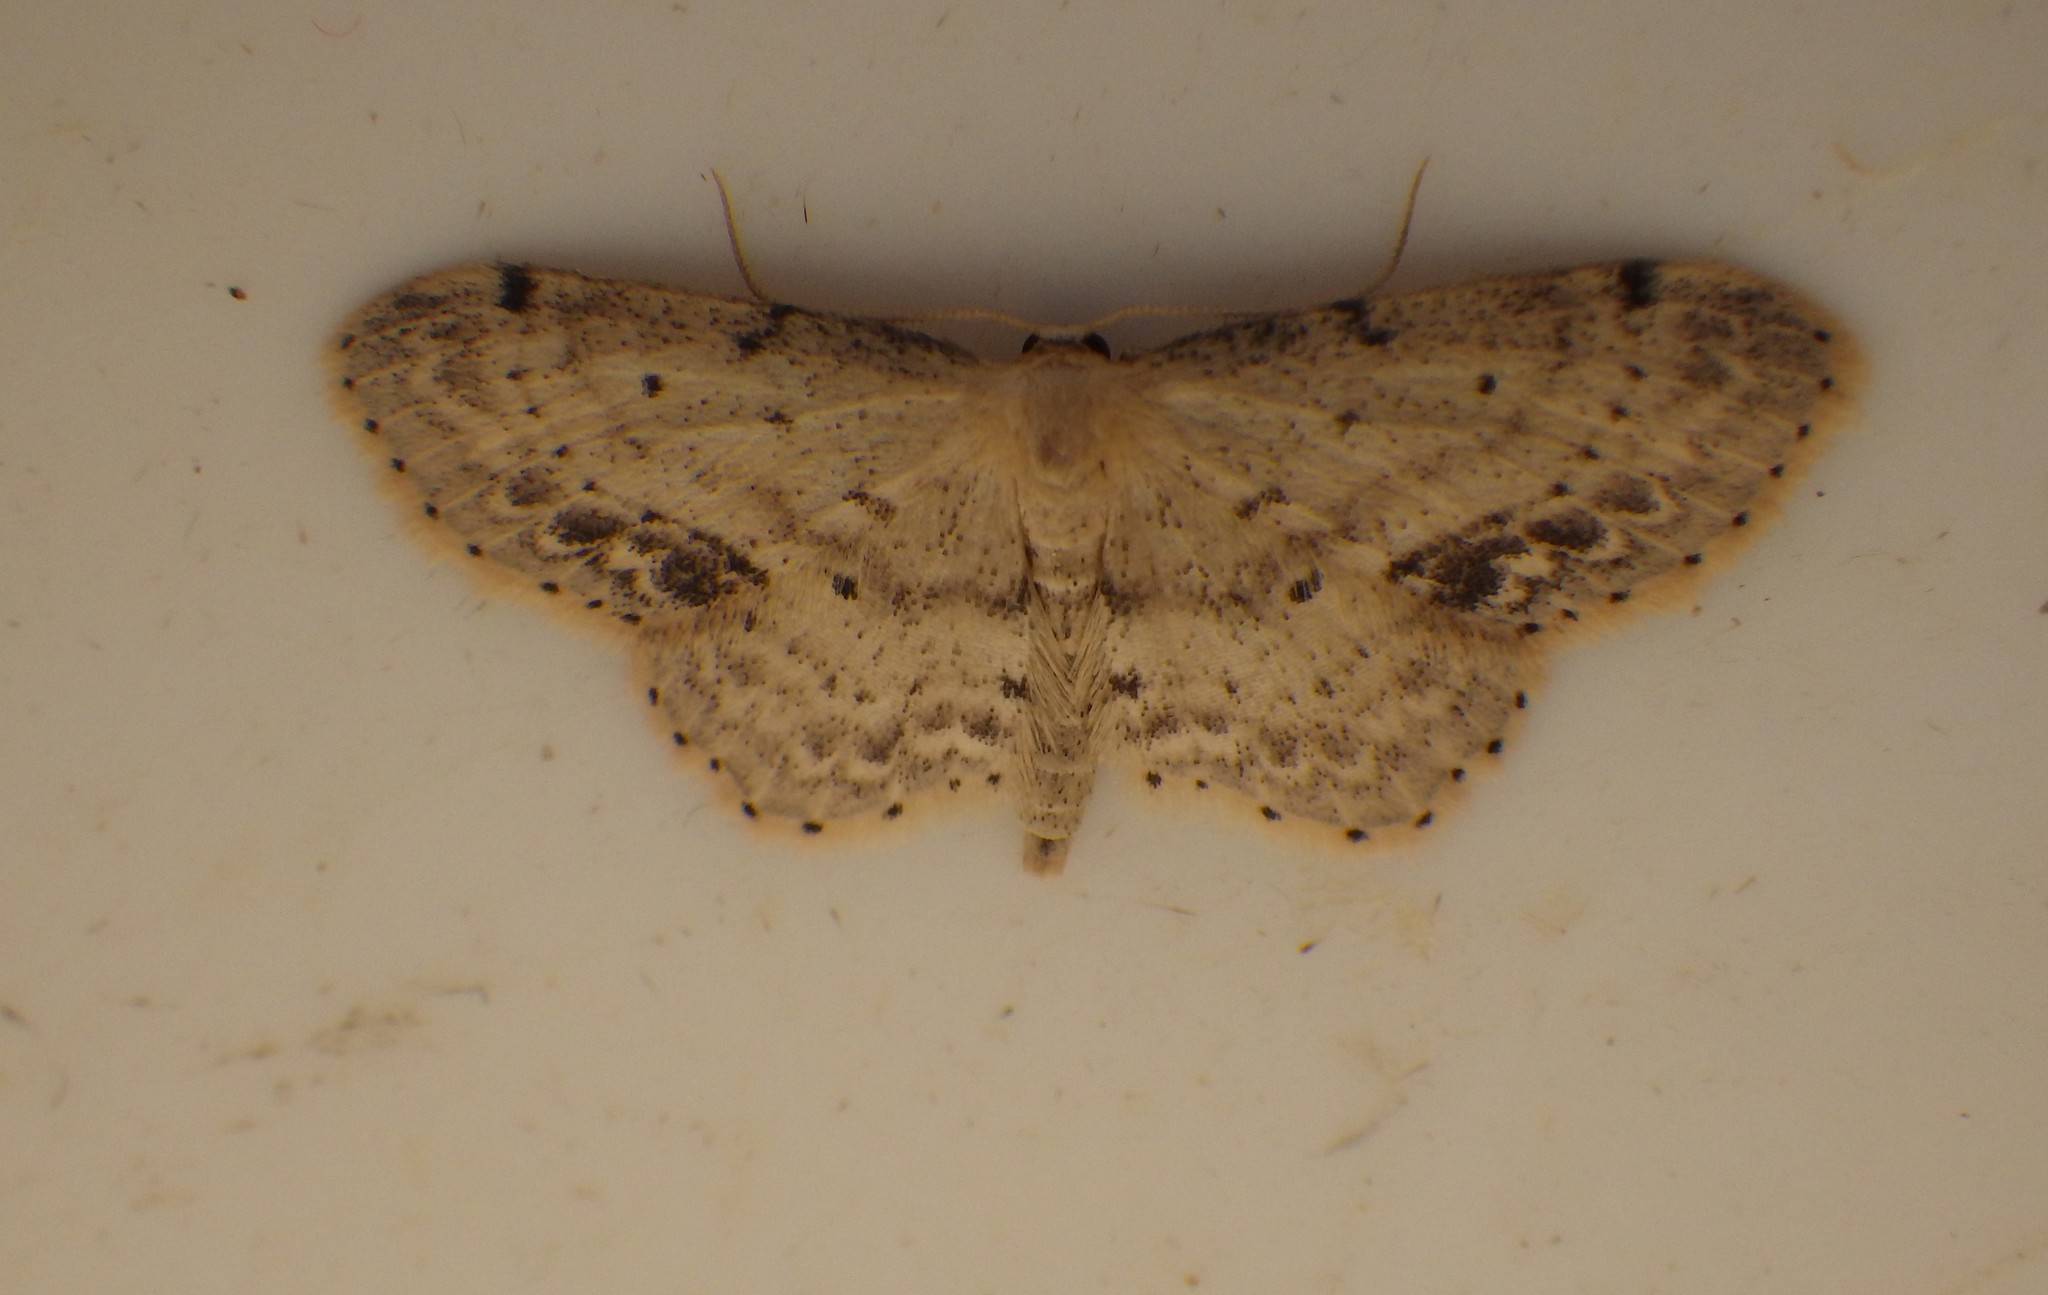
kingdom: Animalia
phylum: Arthropoda
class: Insecta
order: Lepidoptera
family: Geometridae
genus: Idaea
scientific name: Idaea dimidiata
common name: Single-dotted wave
